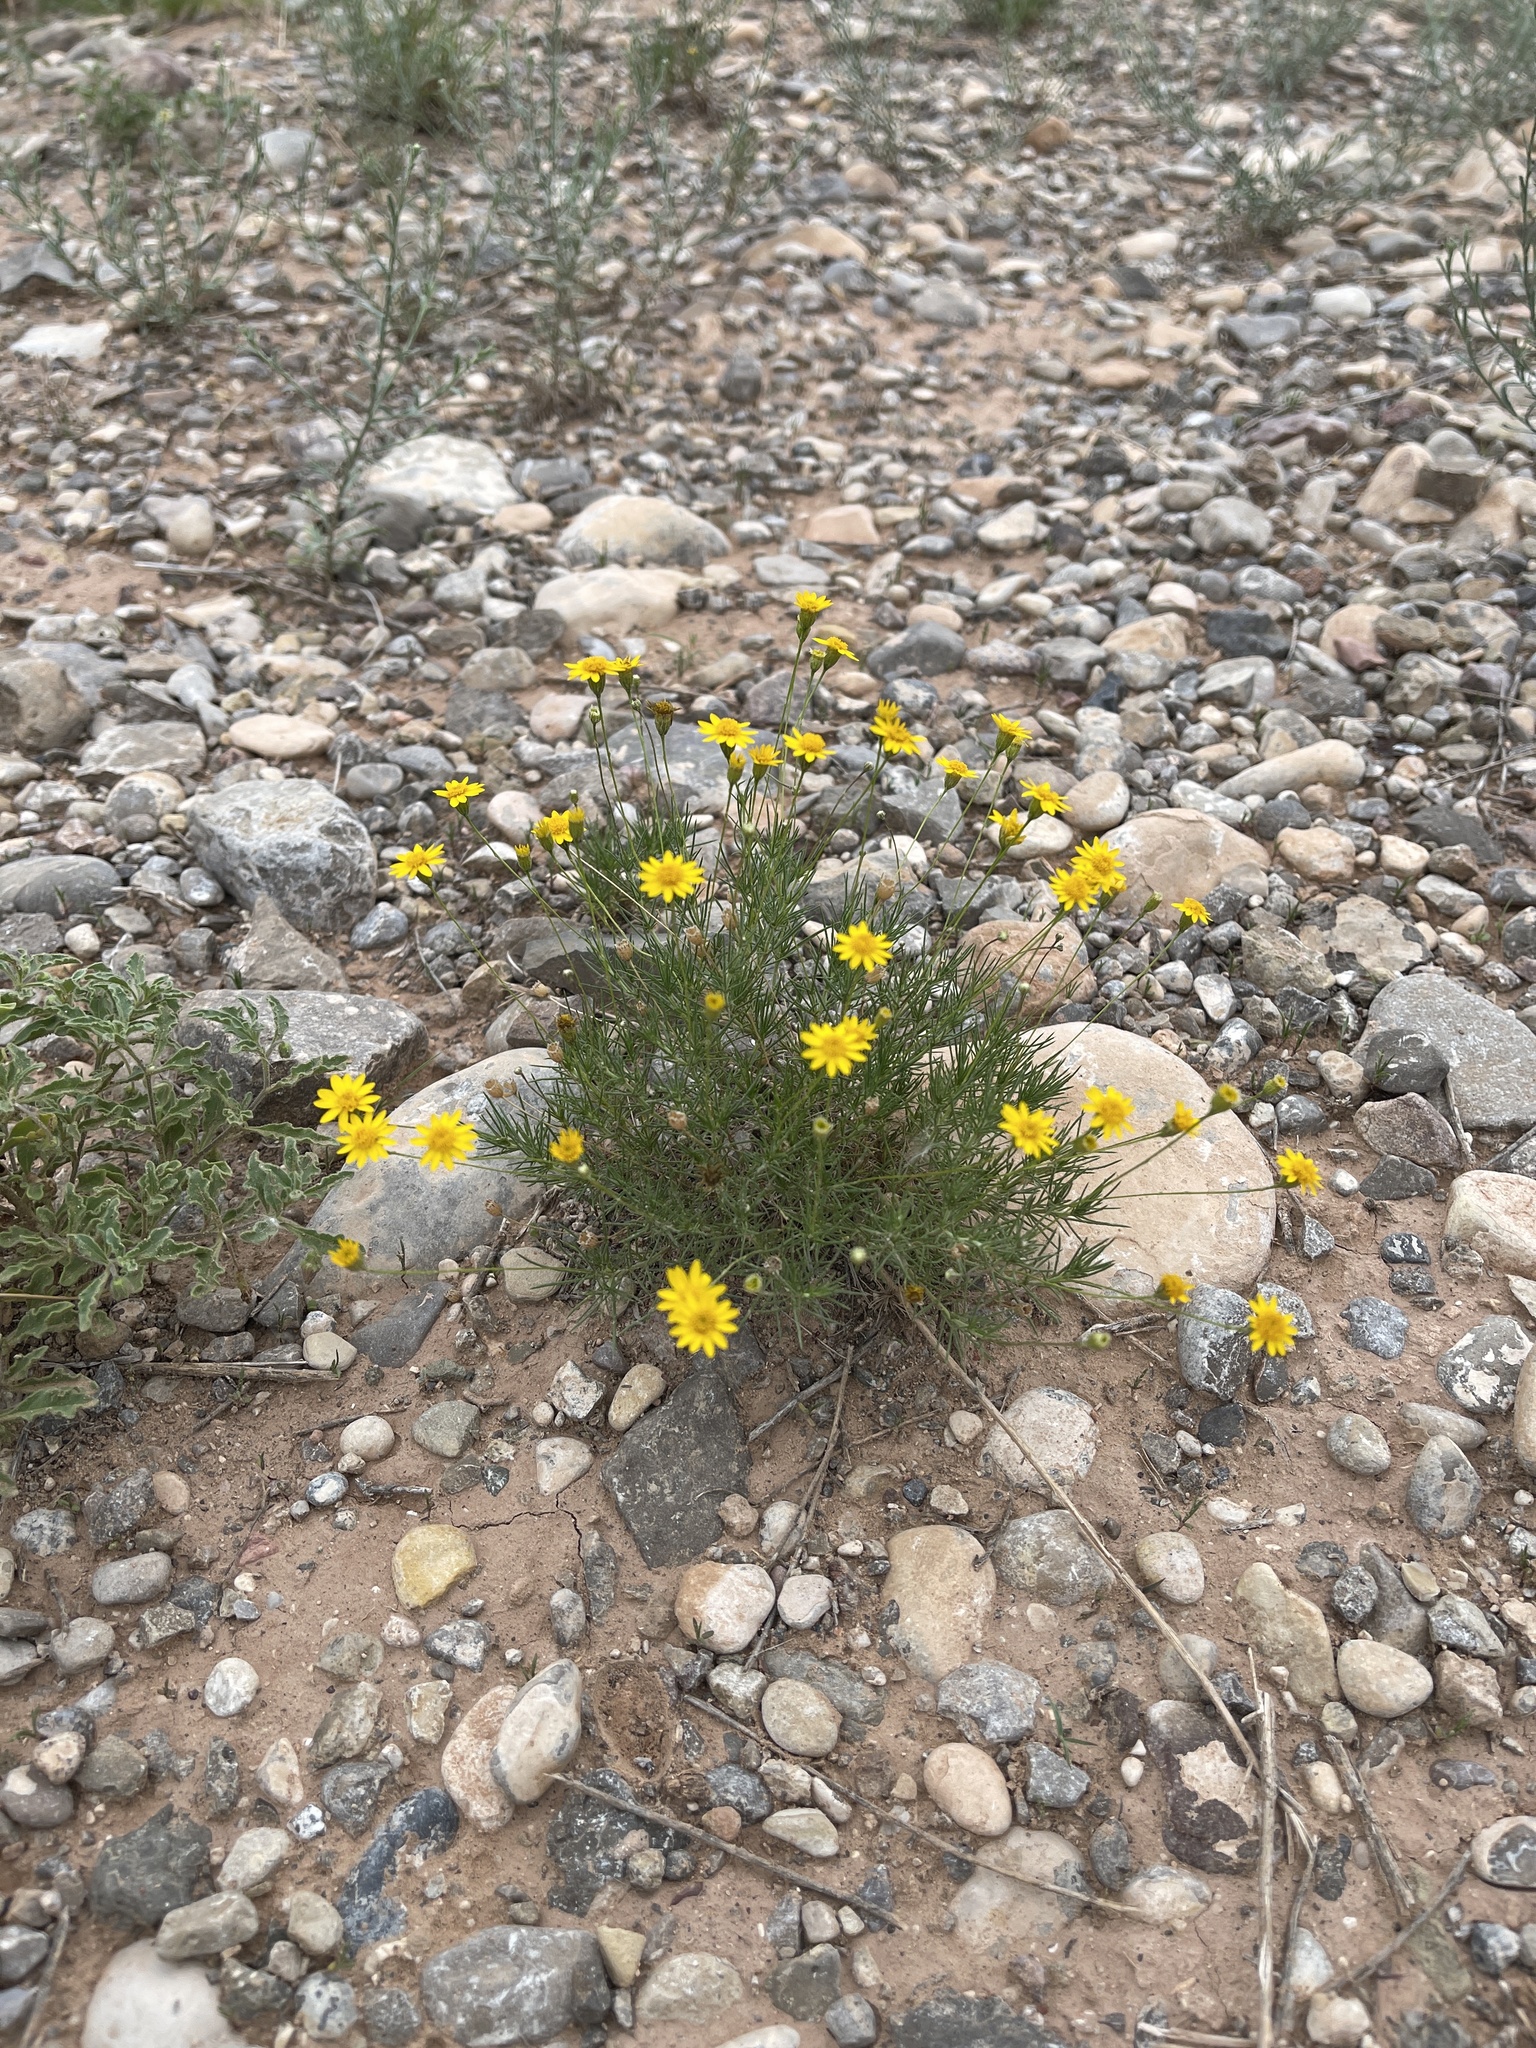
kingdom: Plantae
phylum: Tracheophyta
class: Magnoliopsida
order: Asterales
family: Asteraceae
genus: Thymophylla
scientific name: Thymophylla pentachaeta
